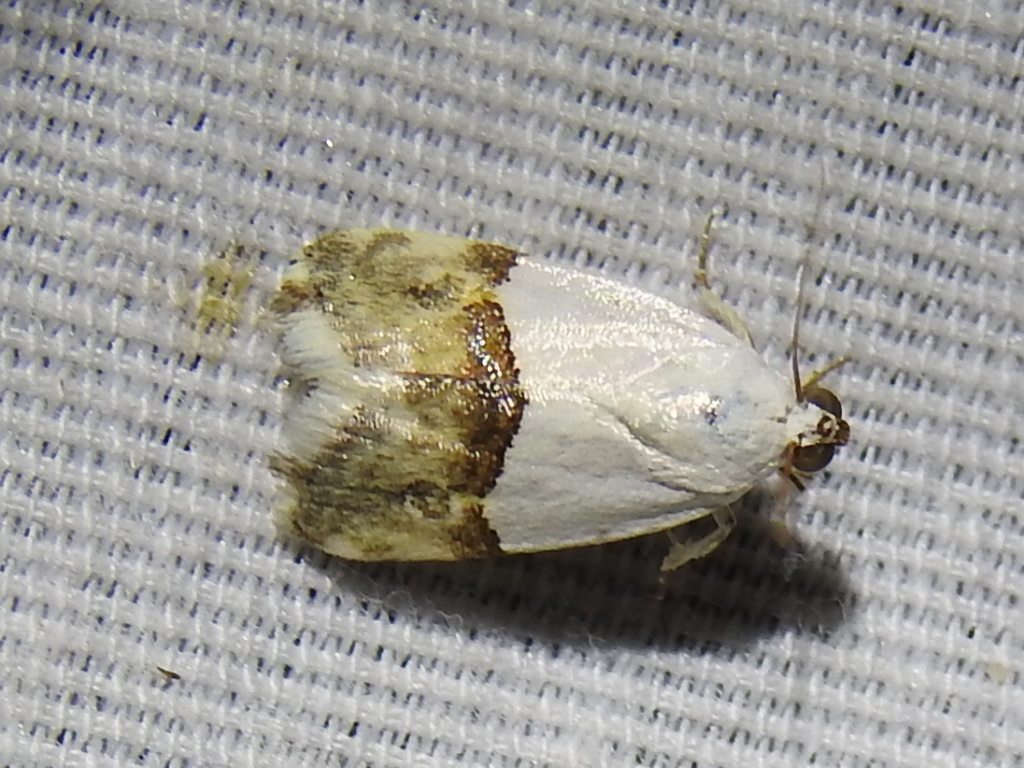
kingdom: Animalia
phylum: Arthropoda
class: Insecta
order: Lepidoptera
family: Noctuidae
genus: Ponometia
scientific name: Ponometia elegantula
